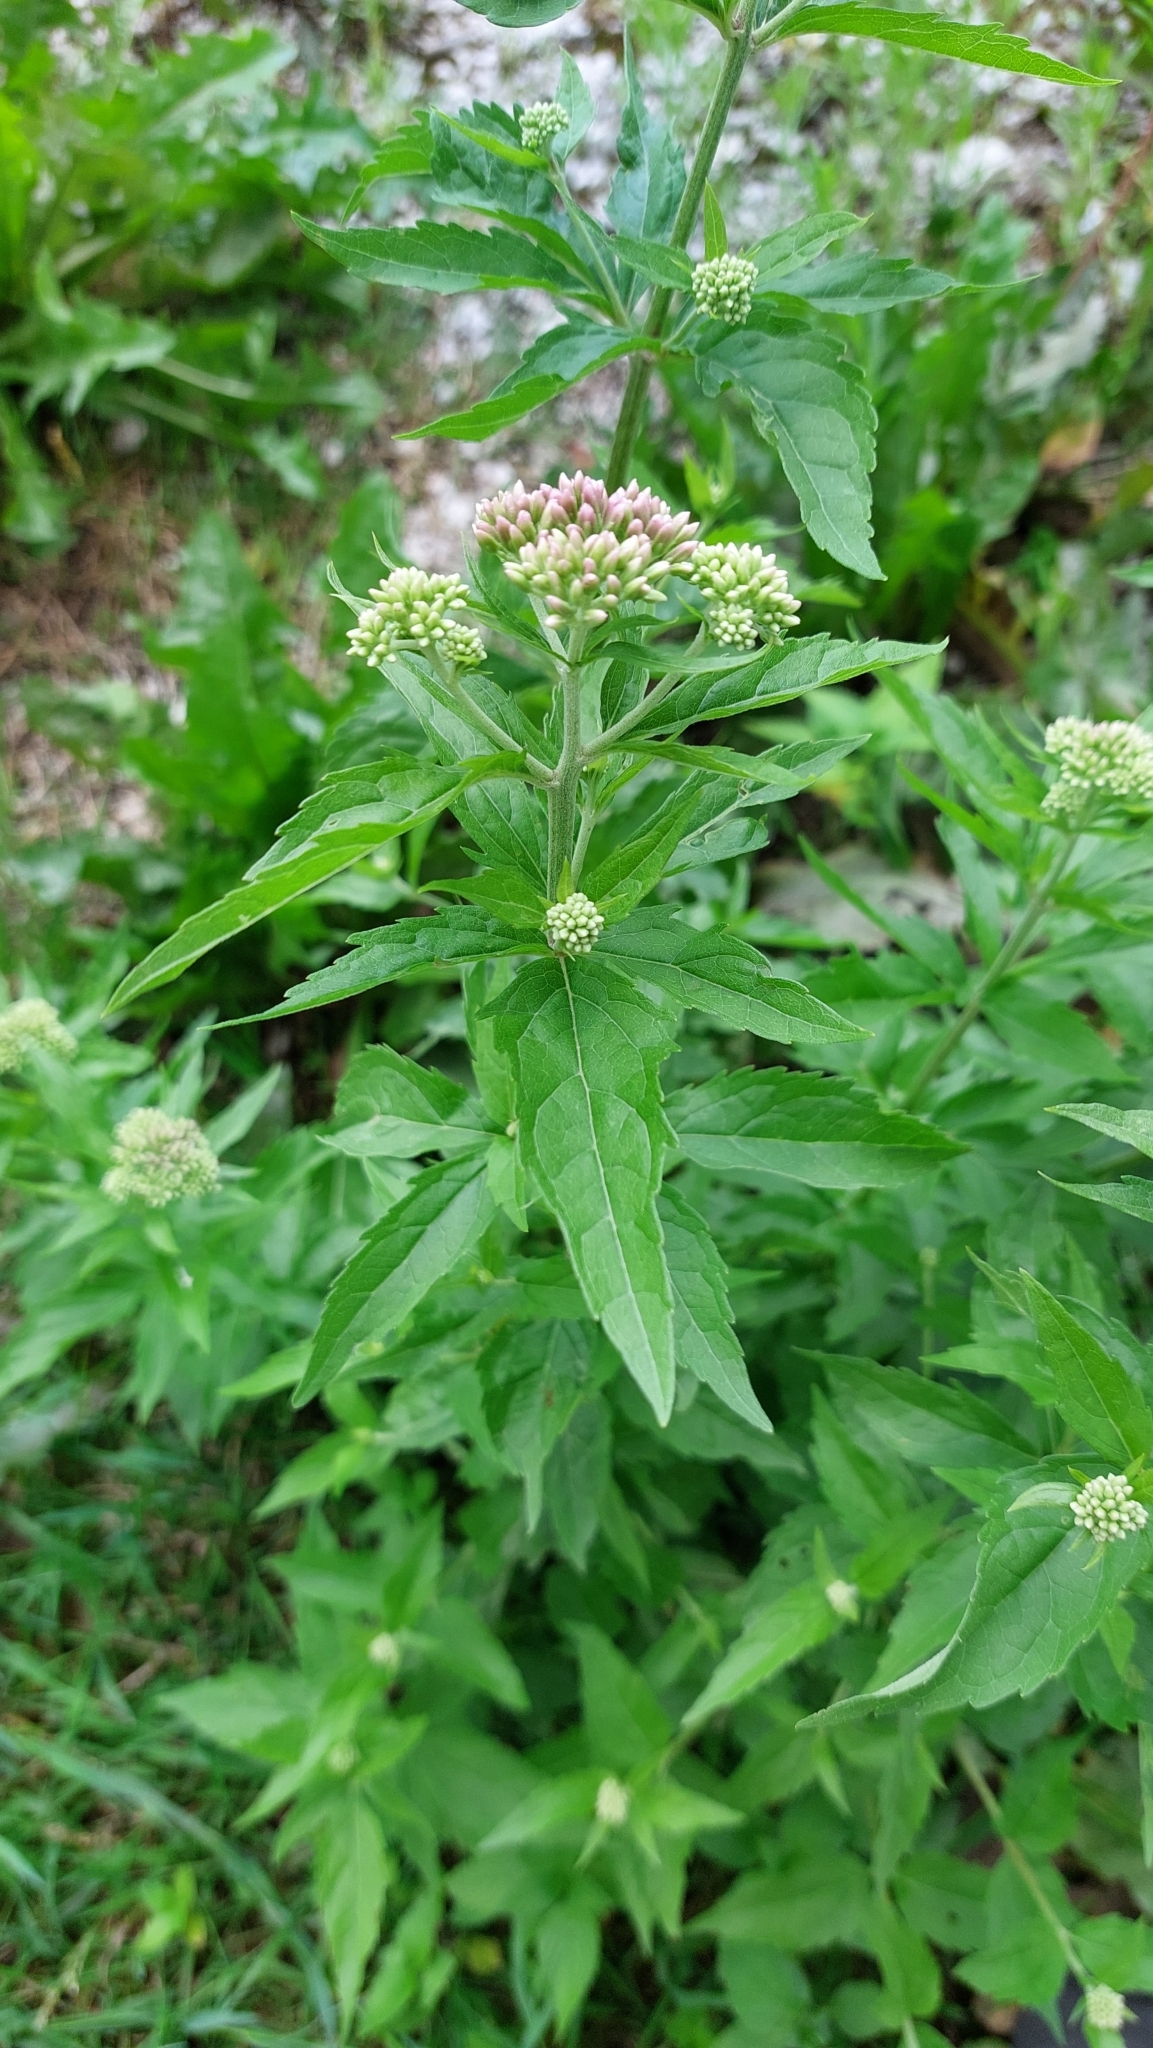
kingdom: Plantae
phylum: Tracheophyta
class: Magnoliopsida
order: Asterales
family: Asteraceae
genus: Eupatorium
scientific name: Eupatorium cannabinum
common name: Hemp-agrimony
